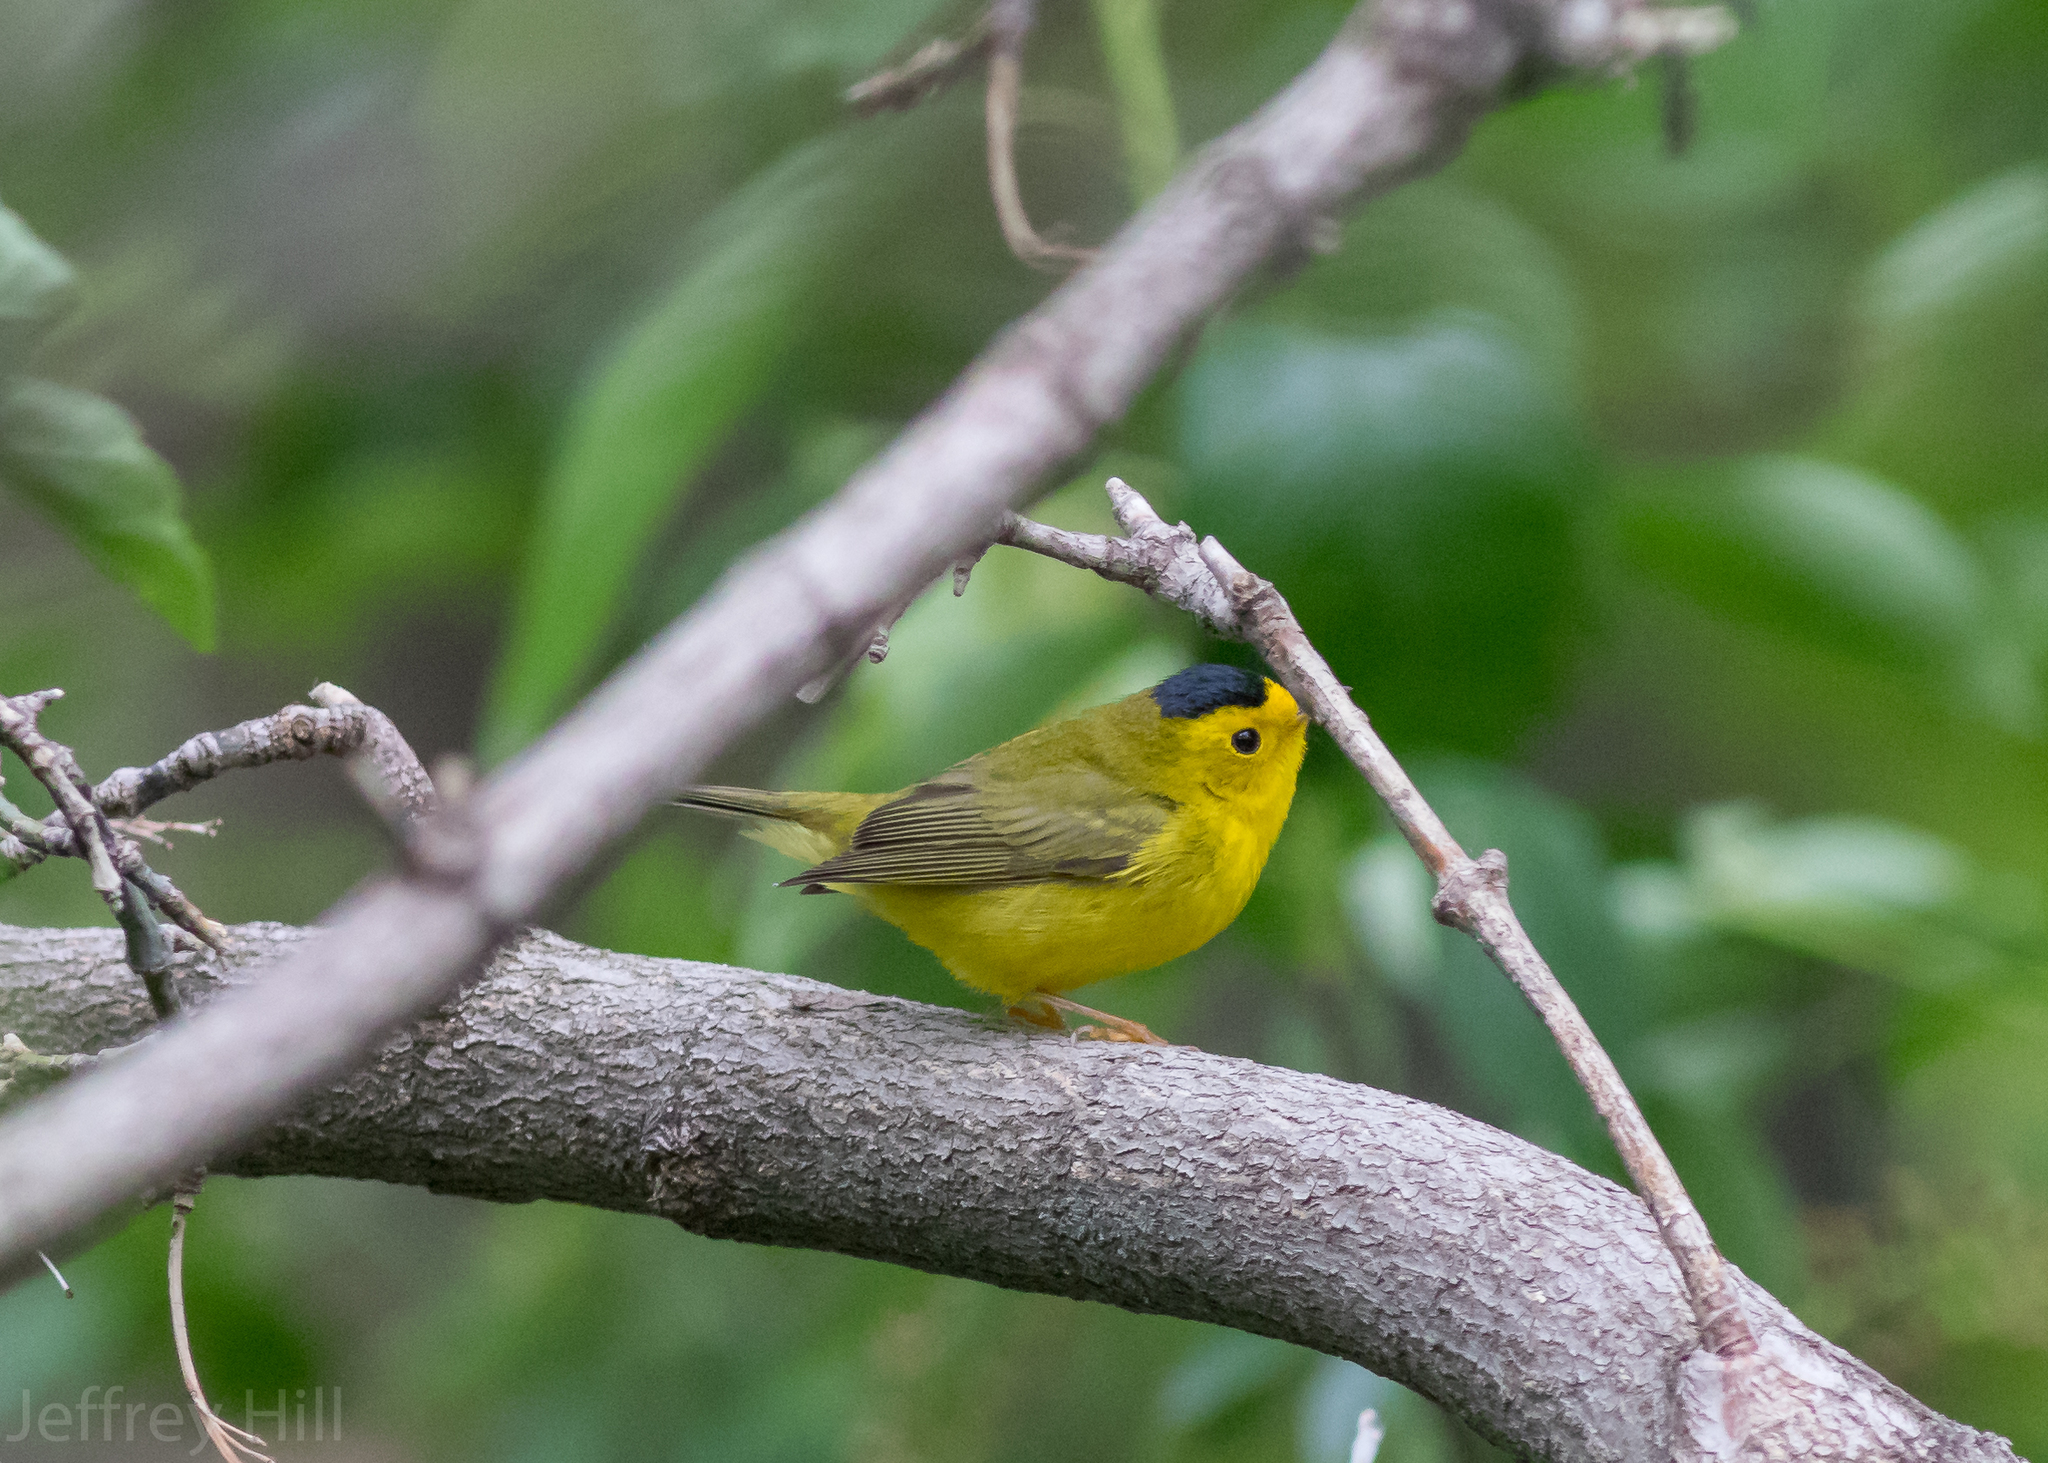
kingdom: Animalia
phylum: Chordata
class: Aves
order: Passeriformes
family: Parulidae
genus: Cardellina
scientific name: Cardellina pusilla
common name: Wilson's warbler
